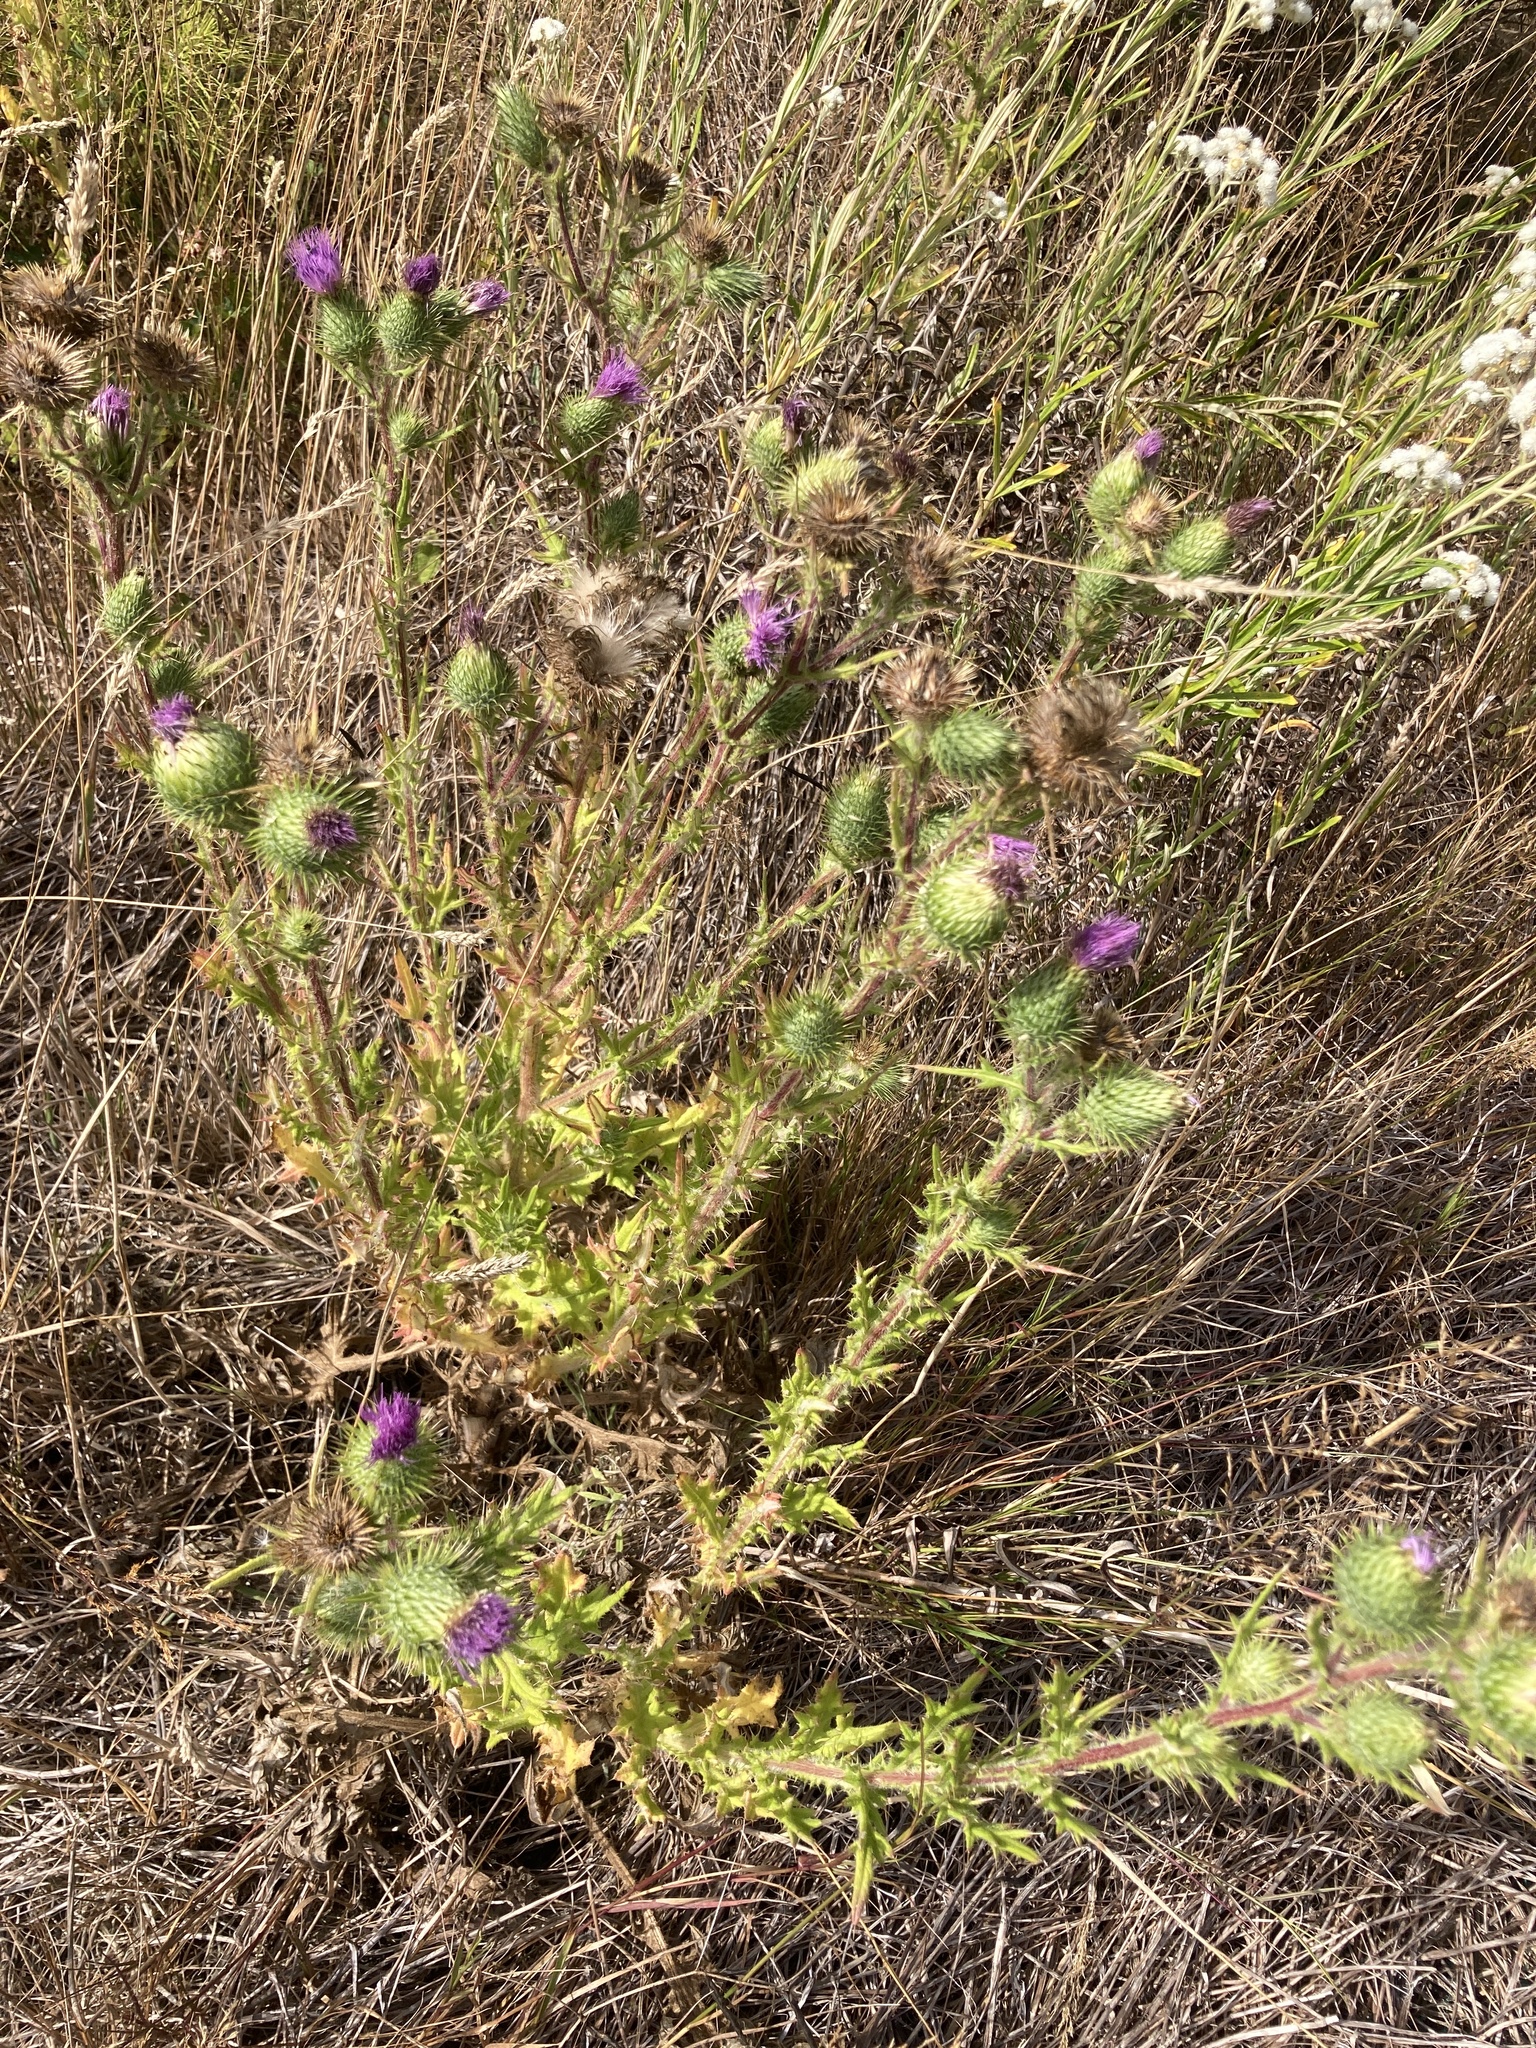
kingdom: Plantae
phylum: Tracheophyta
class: Magnoliopsida
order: Asterales
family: Asteraceae
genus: Cirsium
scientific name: Cirsium vulgare
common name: Bull thistle
